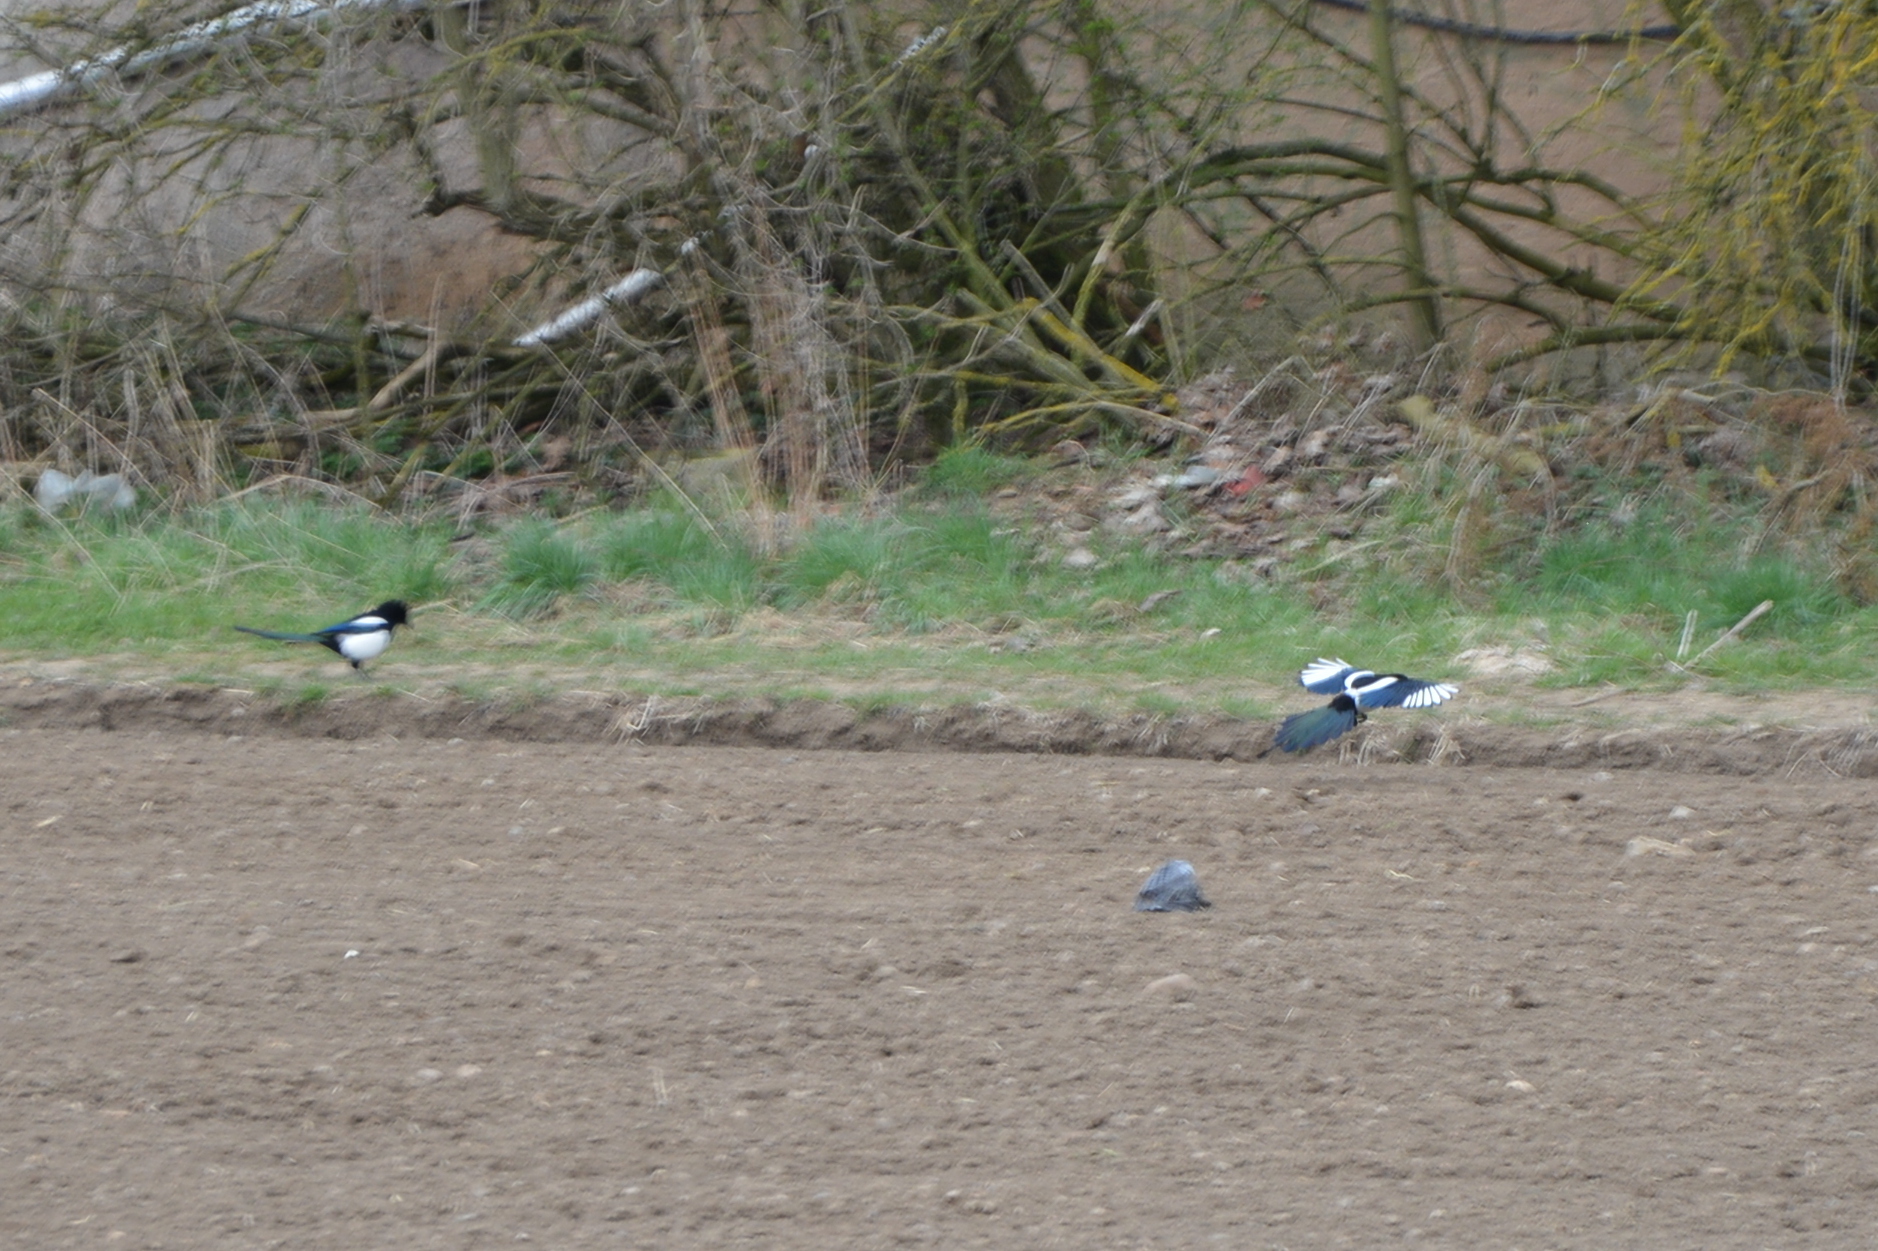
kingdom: Animalia
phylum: Chordata
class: Aves
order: Passeriformes
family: Corvidae
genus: Pica
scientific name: Pica pica
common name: Eurasian magpie
